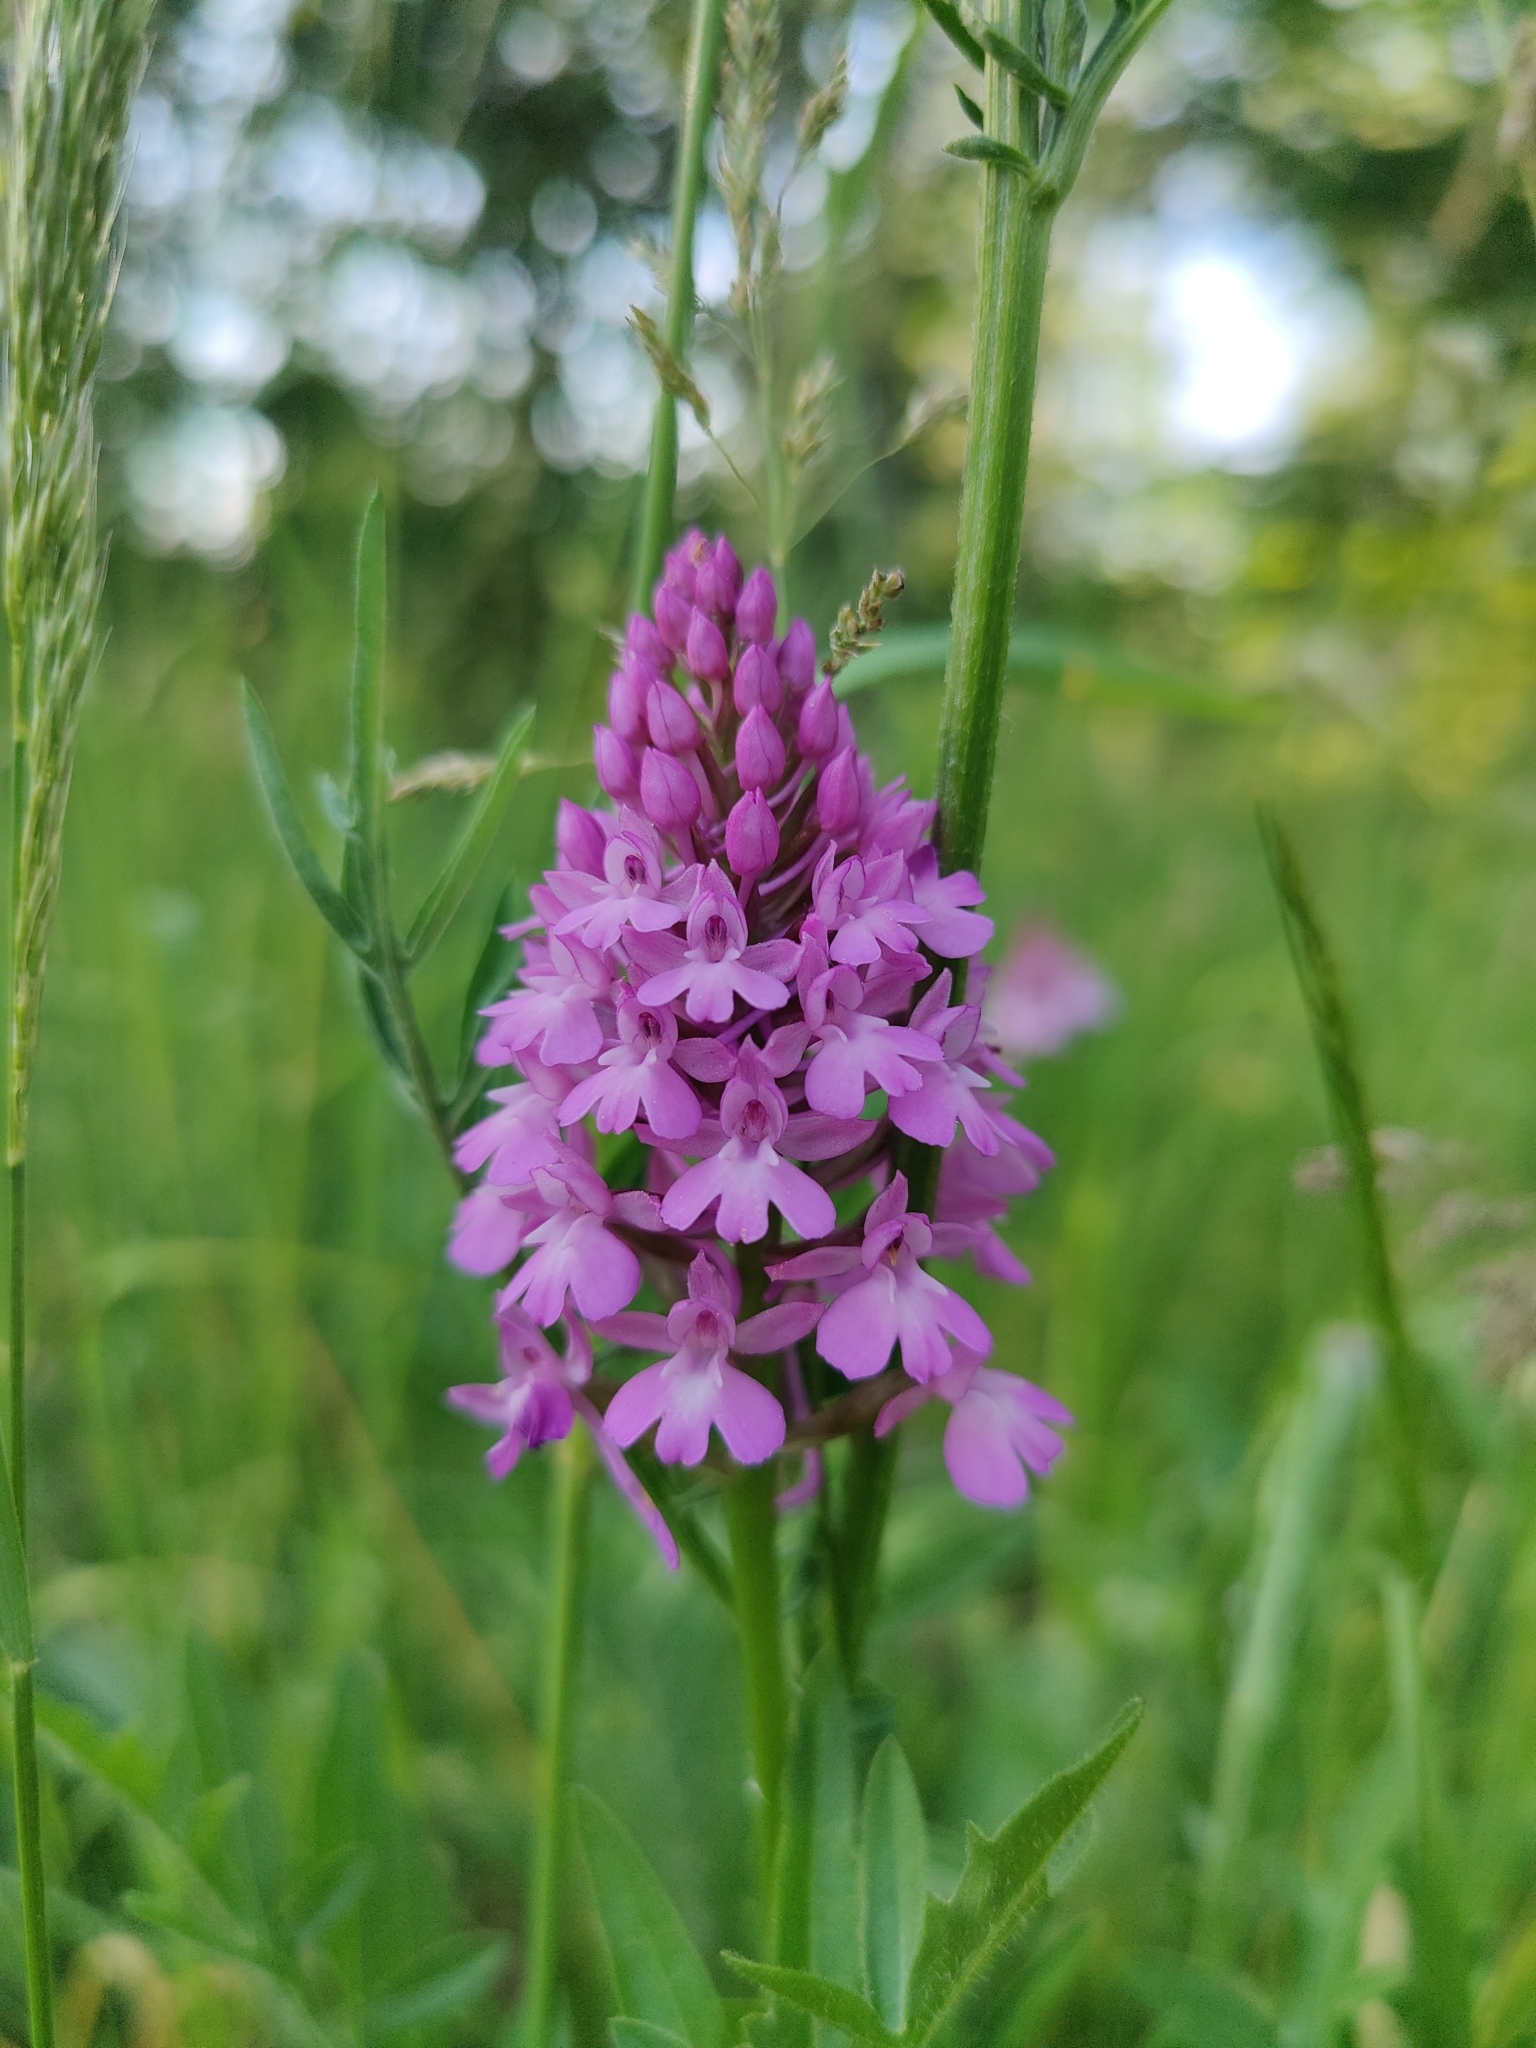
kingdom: Plantae
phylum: Tracheophyta
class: Liliopsida
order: Asparagales
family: Orchidaceae
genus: Anacamptis
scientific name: Anacamptis pyramidalis
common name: Pyramidal orchid
